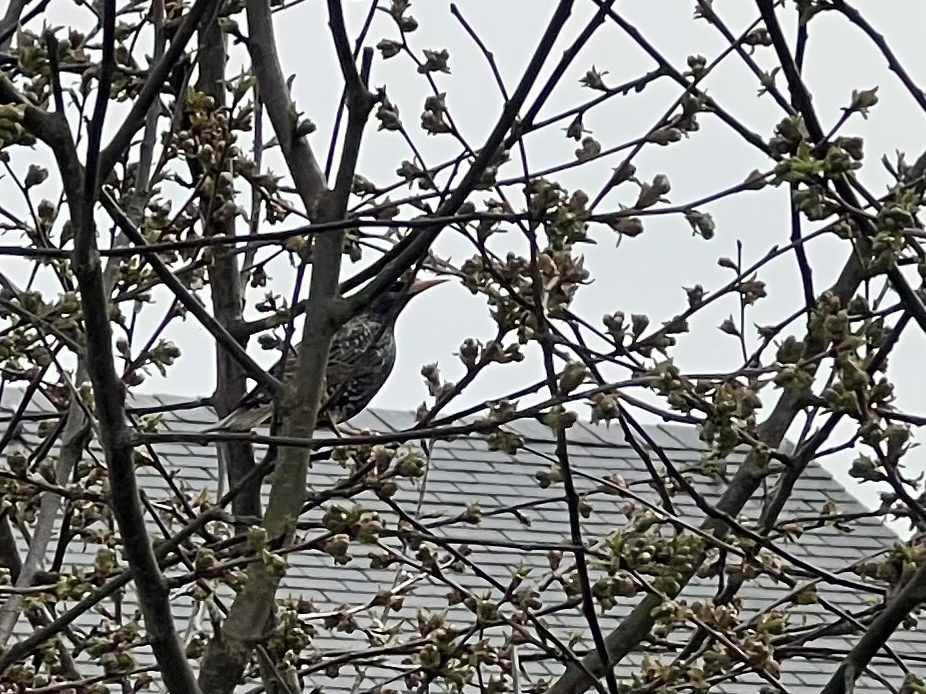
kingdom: Animalia
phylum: Chordata
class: Aves
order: Passeriformes
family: Sturnidae
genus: Sturnus
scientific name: Sturnus vulgaris
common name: Common starling
